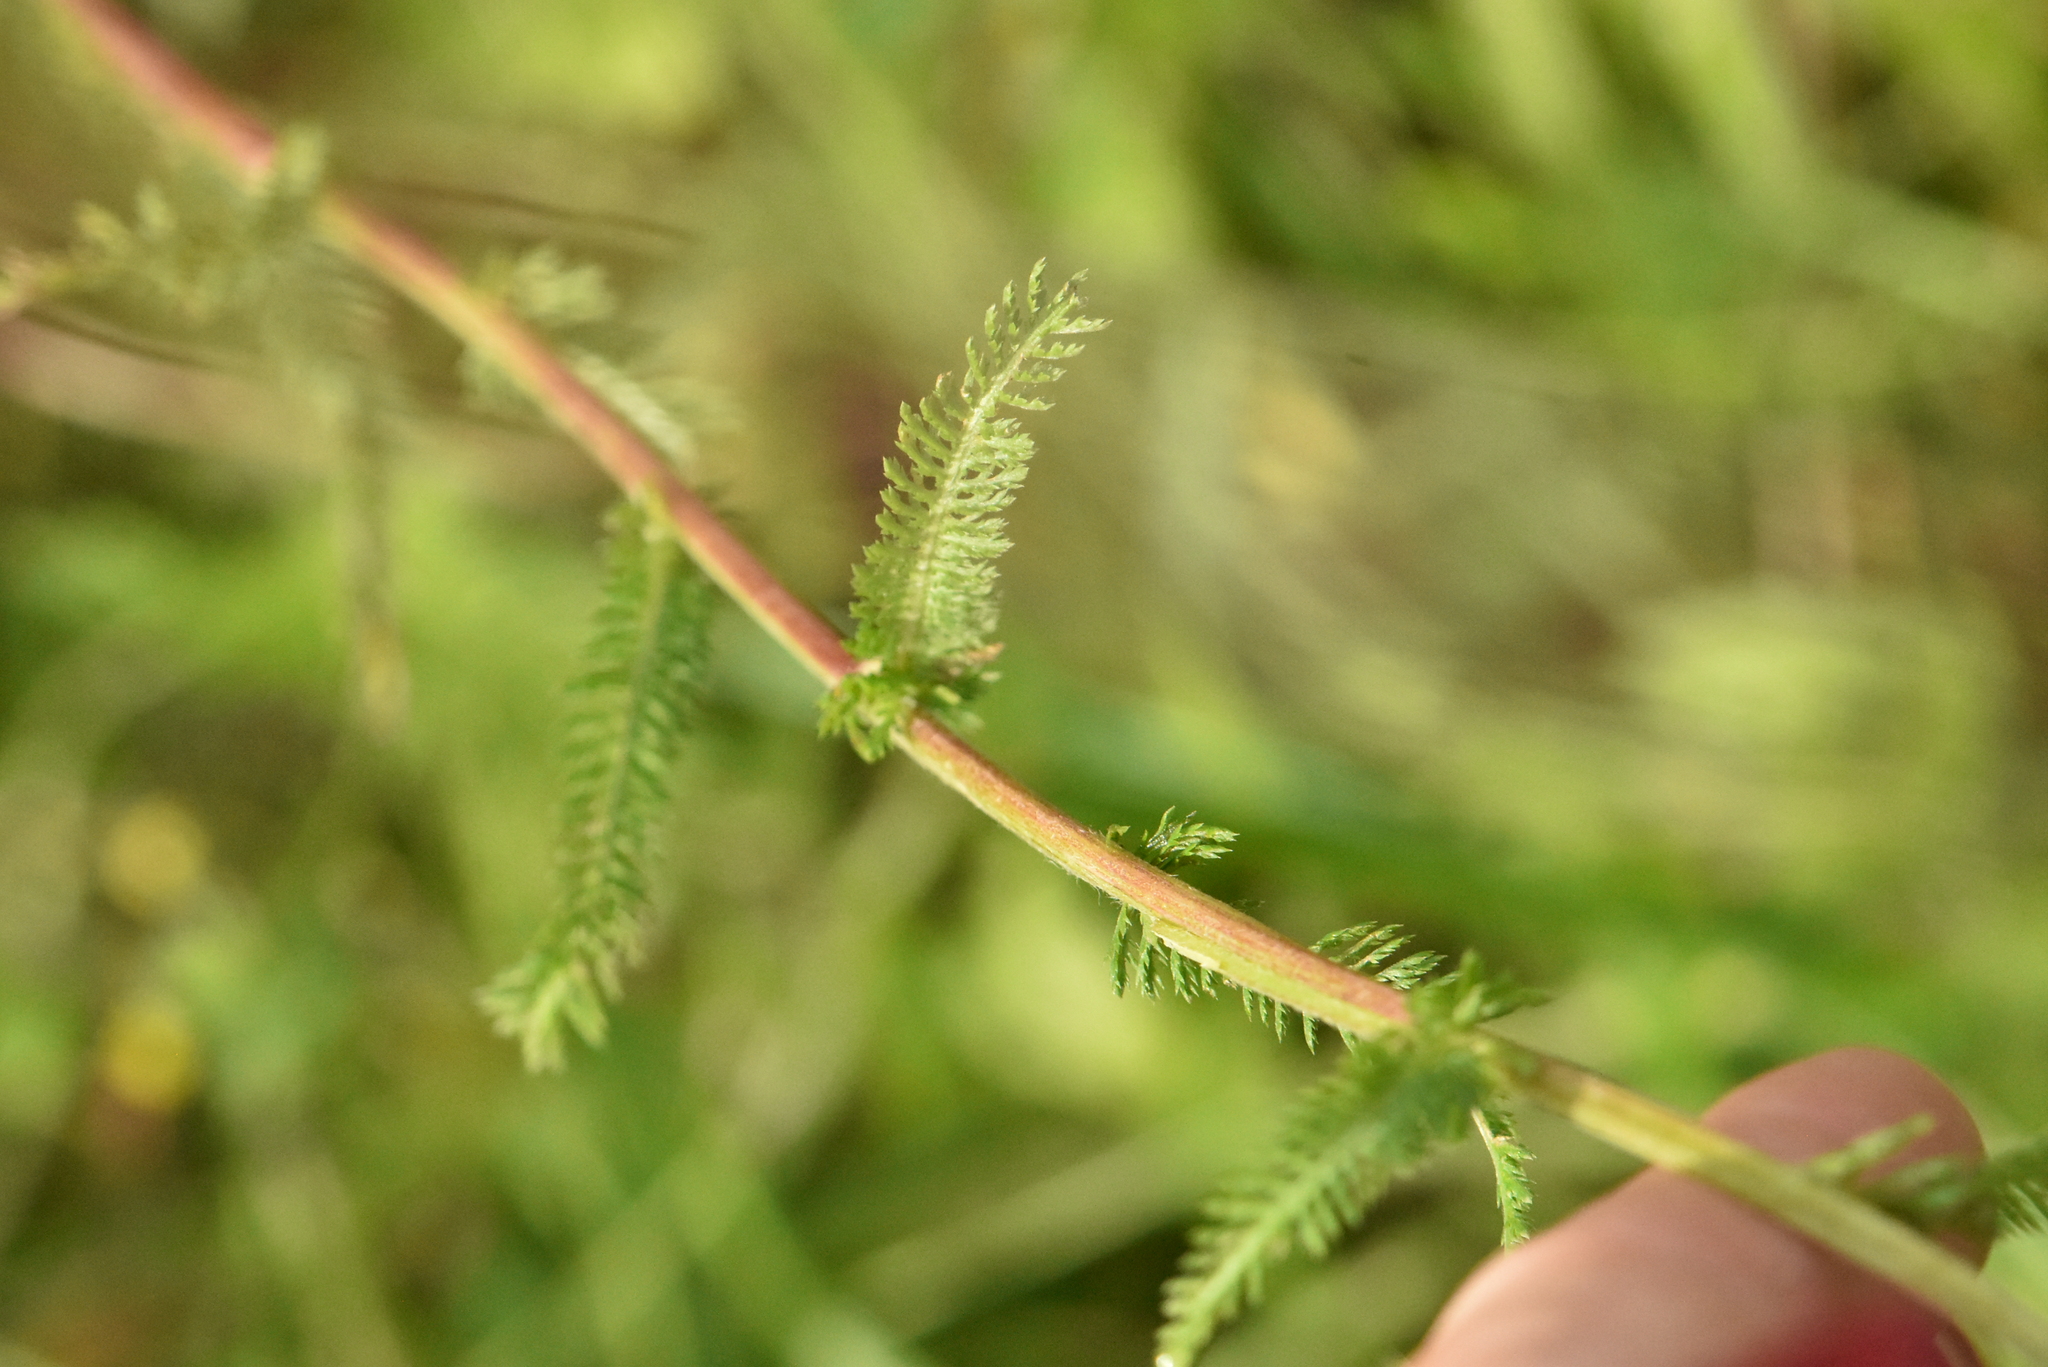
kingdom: Plantae
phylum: Tracheophyta
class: Magnoliopsida
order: Asterales
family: Asteraceae
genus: Achillea
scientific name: Achillea millefolium
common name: Yarrow
